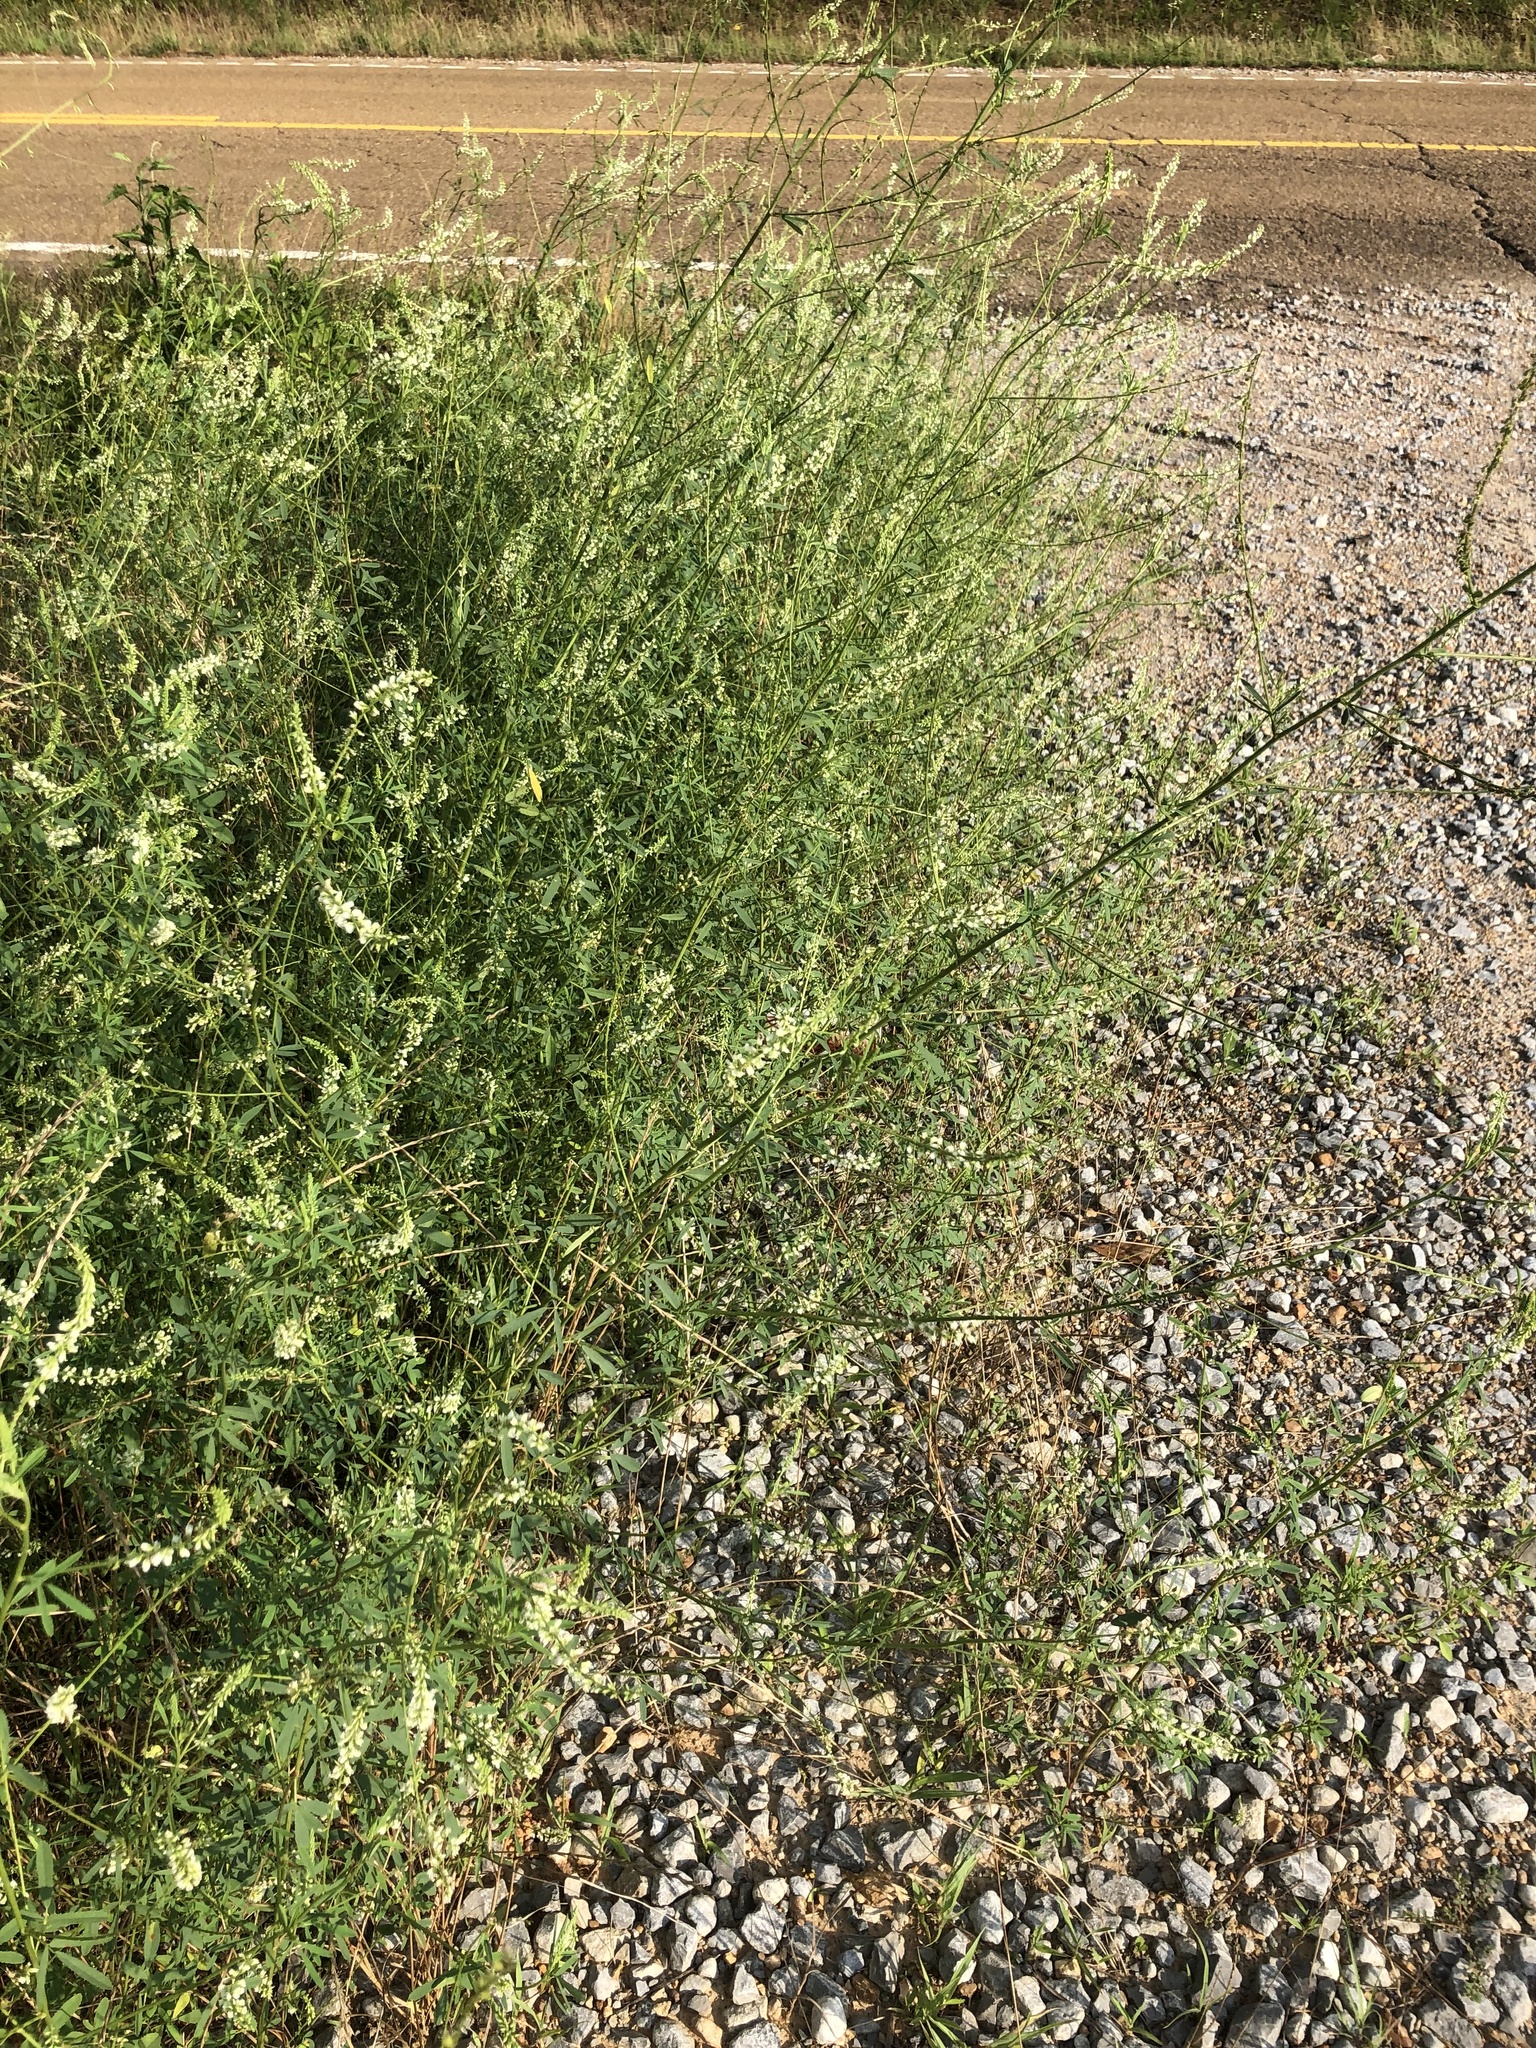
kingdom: Plantae
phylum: Tracheophyta
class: Magnoliopsida
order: Fabales
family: Fabaceae
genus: Melilotus
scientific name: Melilotus albus
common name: White melilot
